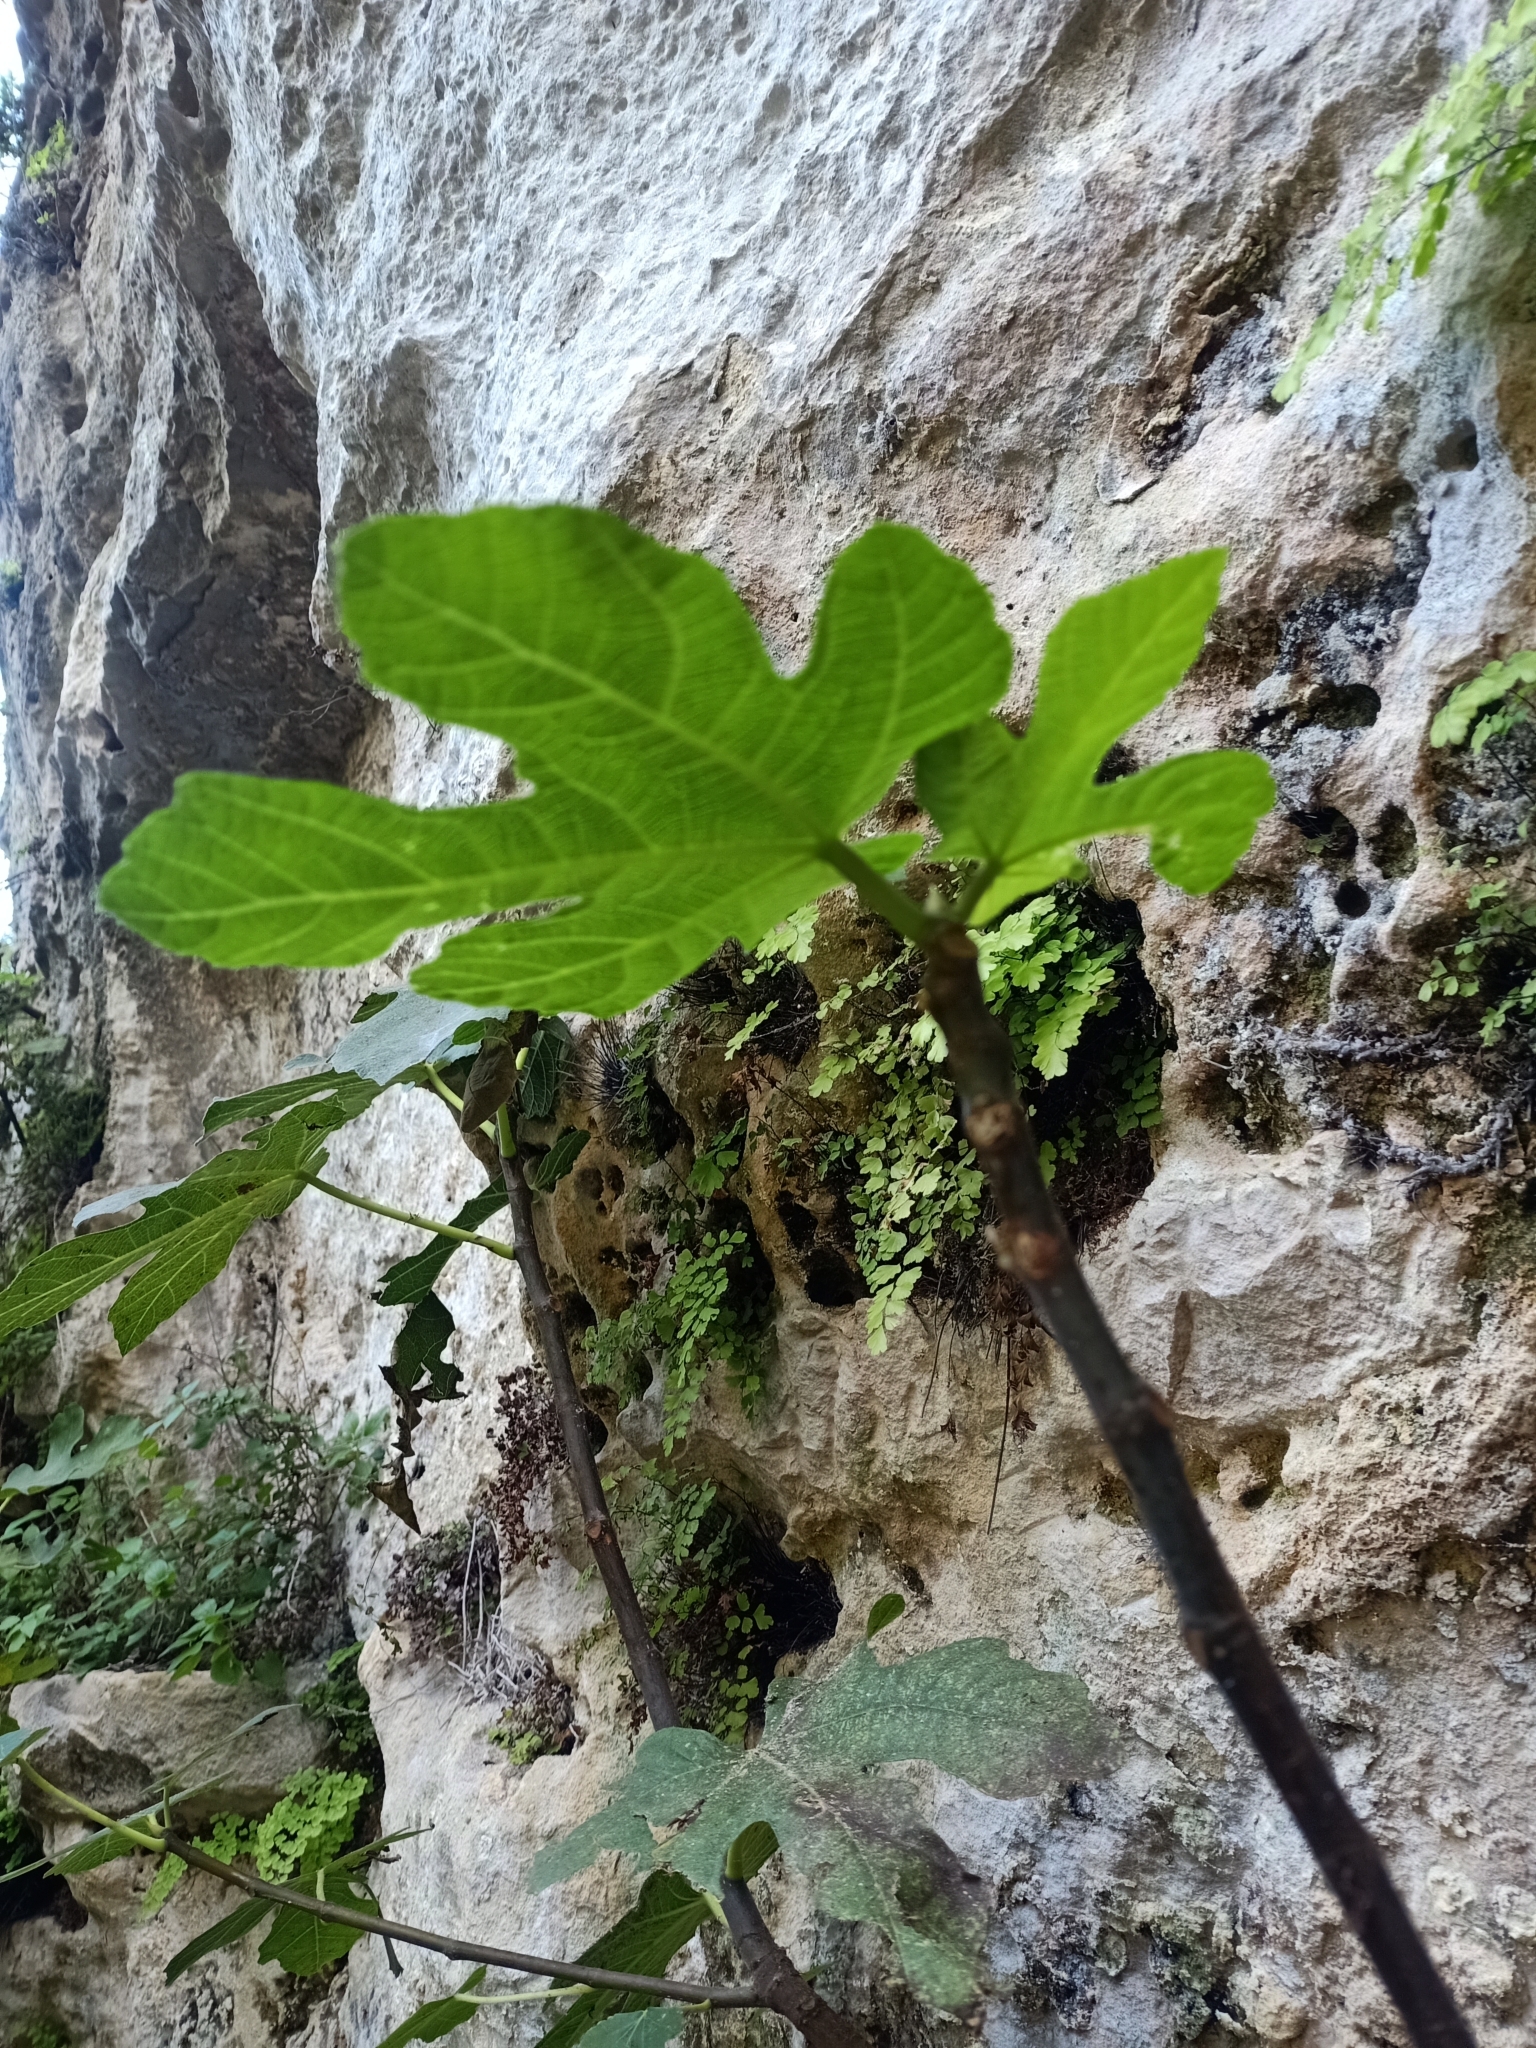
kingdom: Plantae
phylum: Tracheophyta
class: Magnoliopsida
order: Rosales
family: Moraceae
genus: Ficus
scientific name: Ficus carica
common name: Fig
